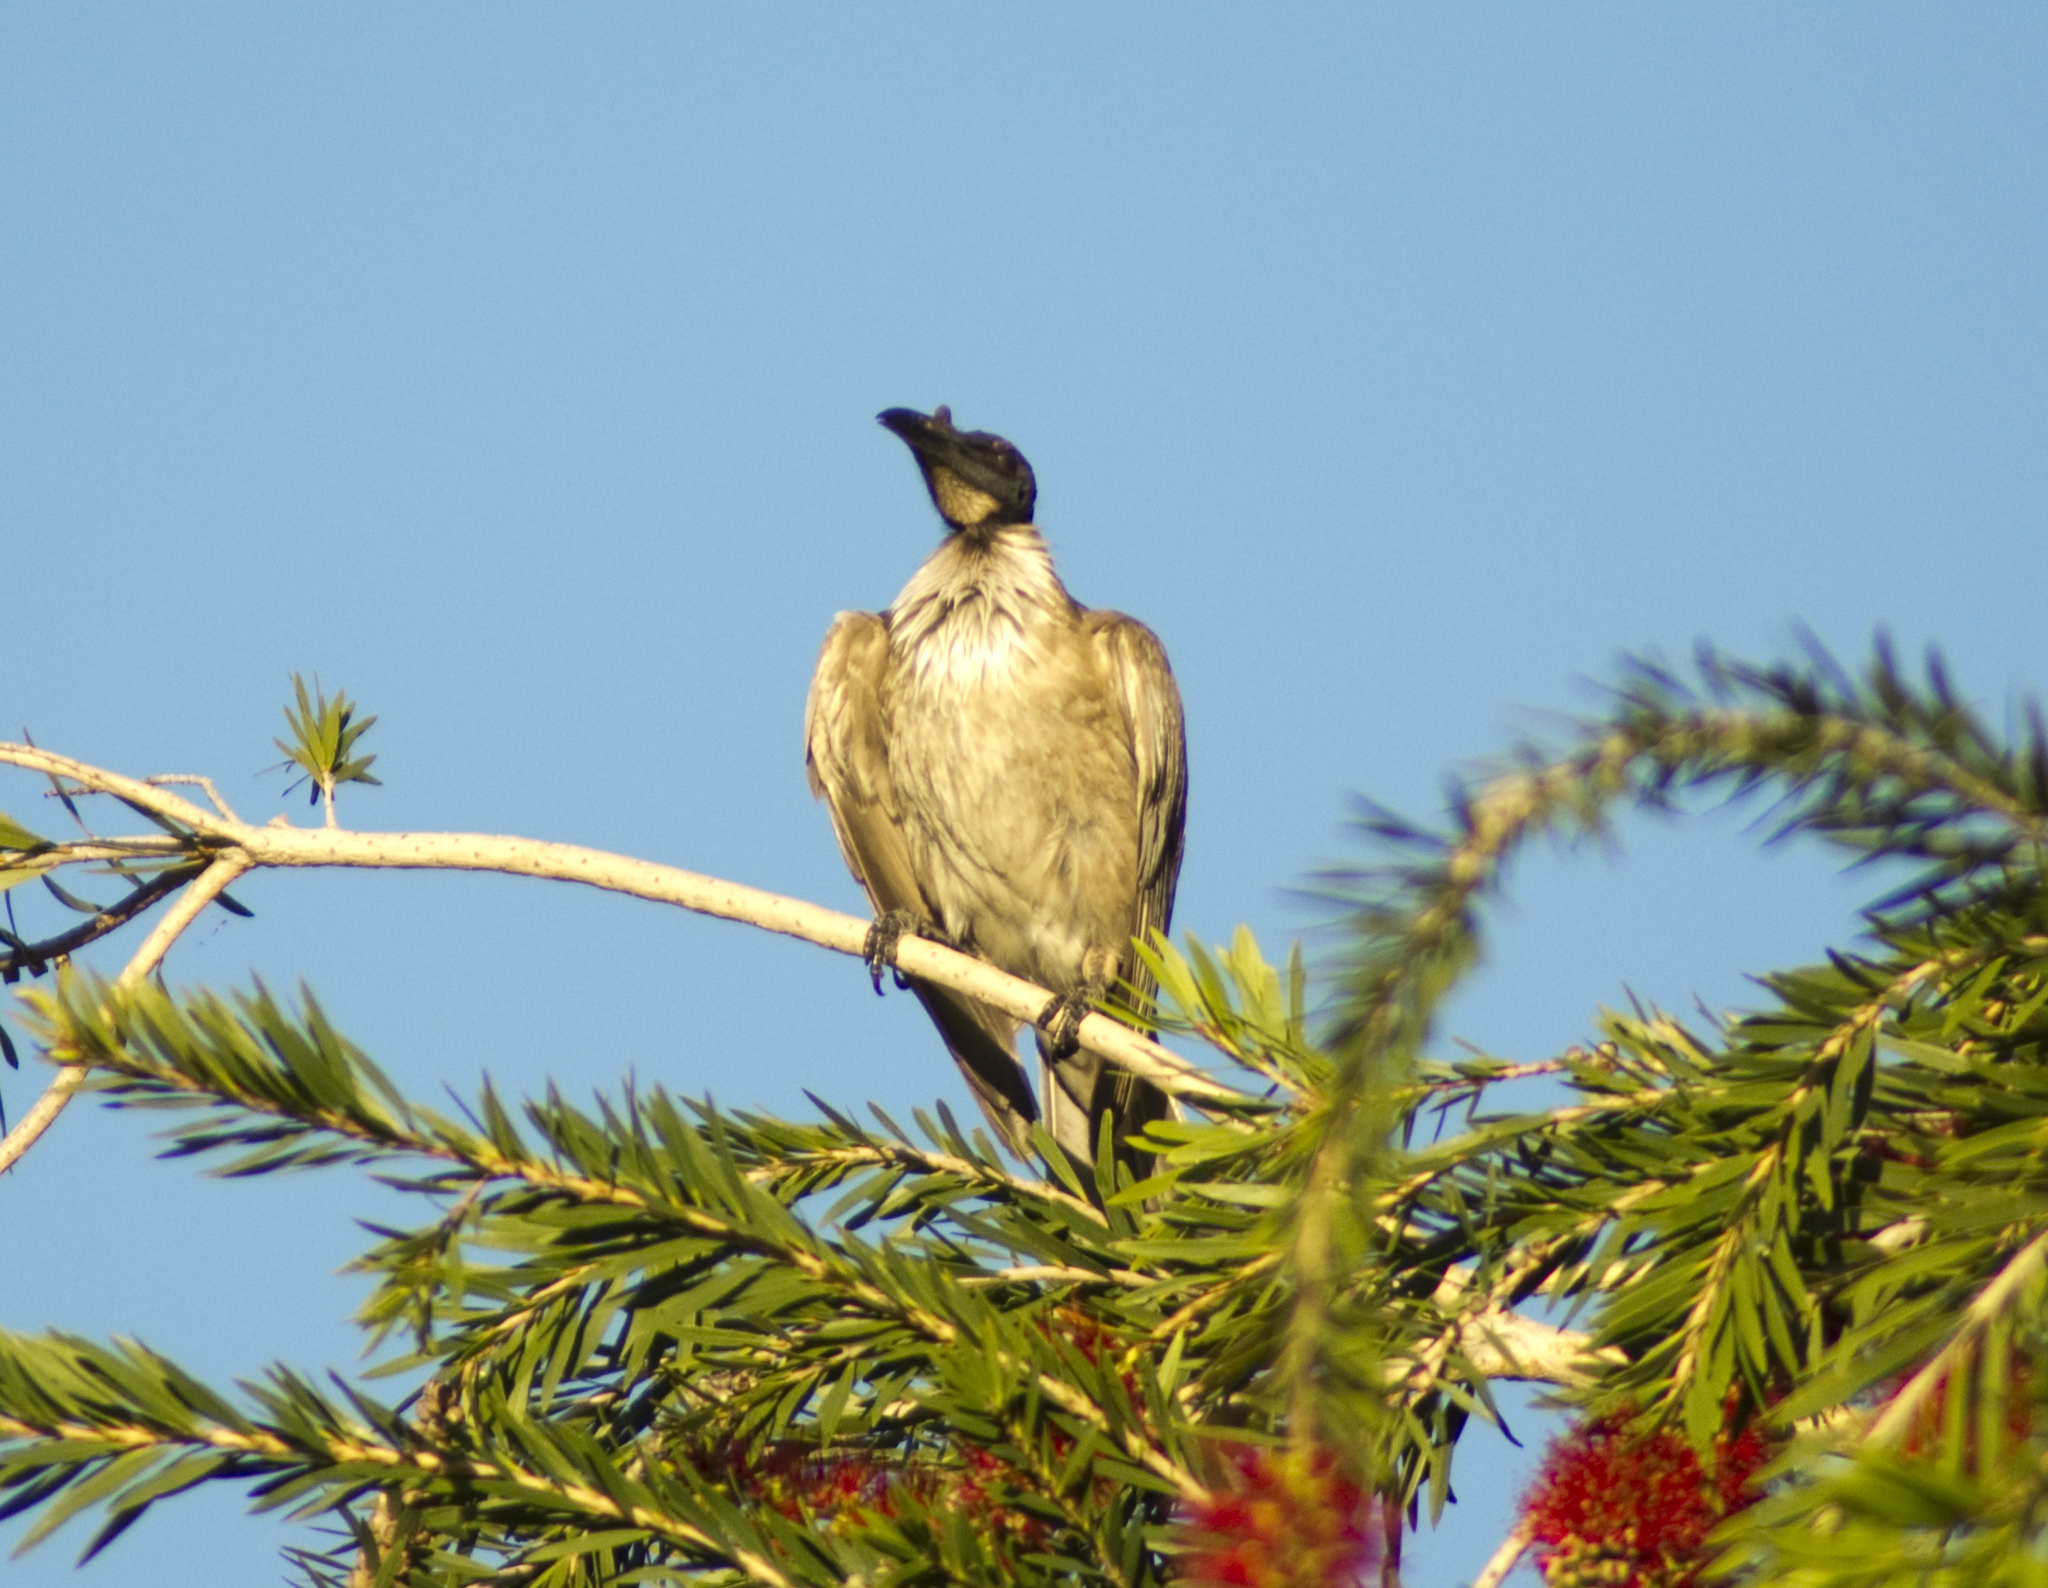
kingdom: Animalia
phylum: Chordata
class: Aves
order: Passeriformes
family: Meliphagidae
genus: Philemon
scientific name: Philemon corniculatus
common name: Noisy friarbird
